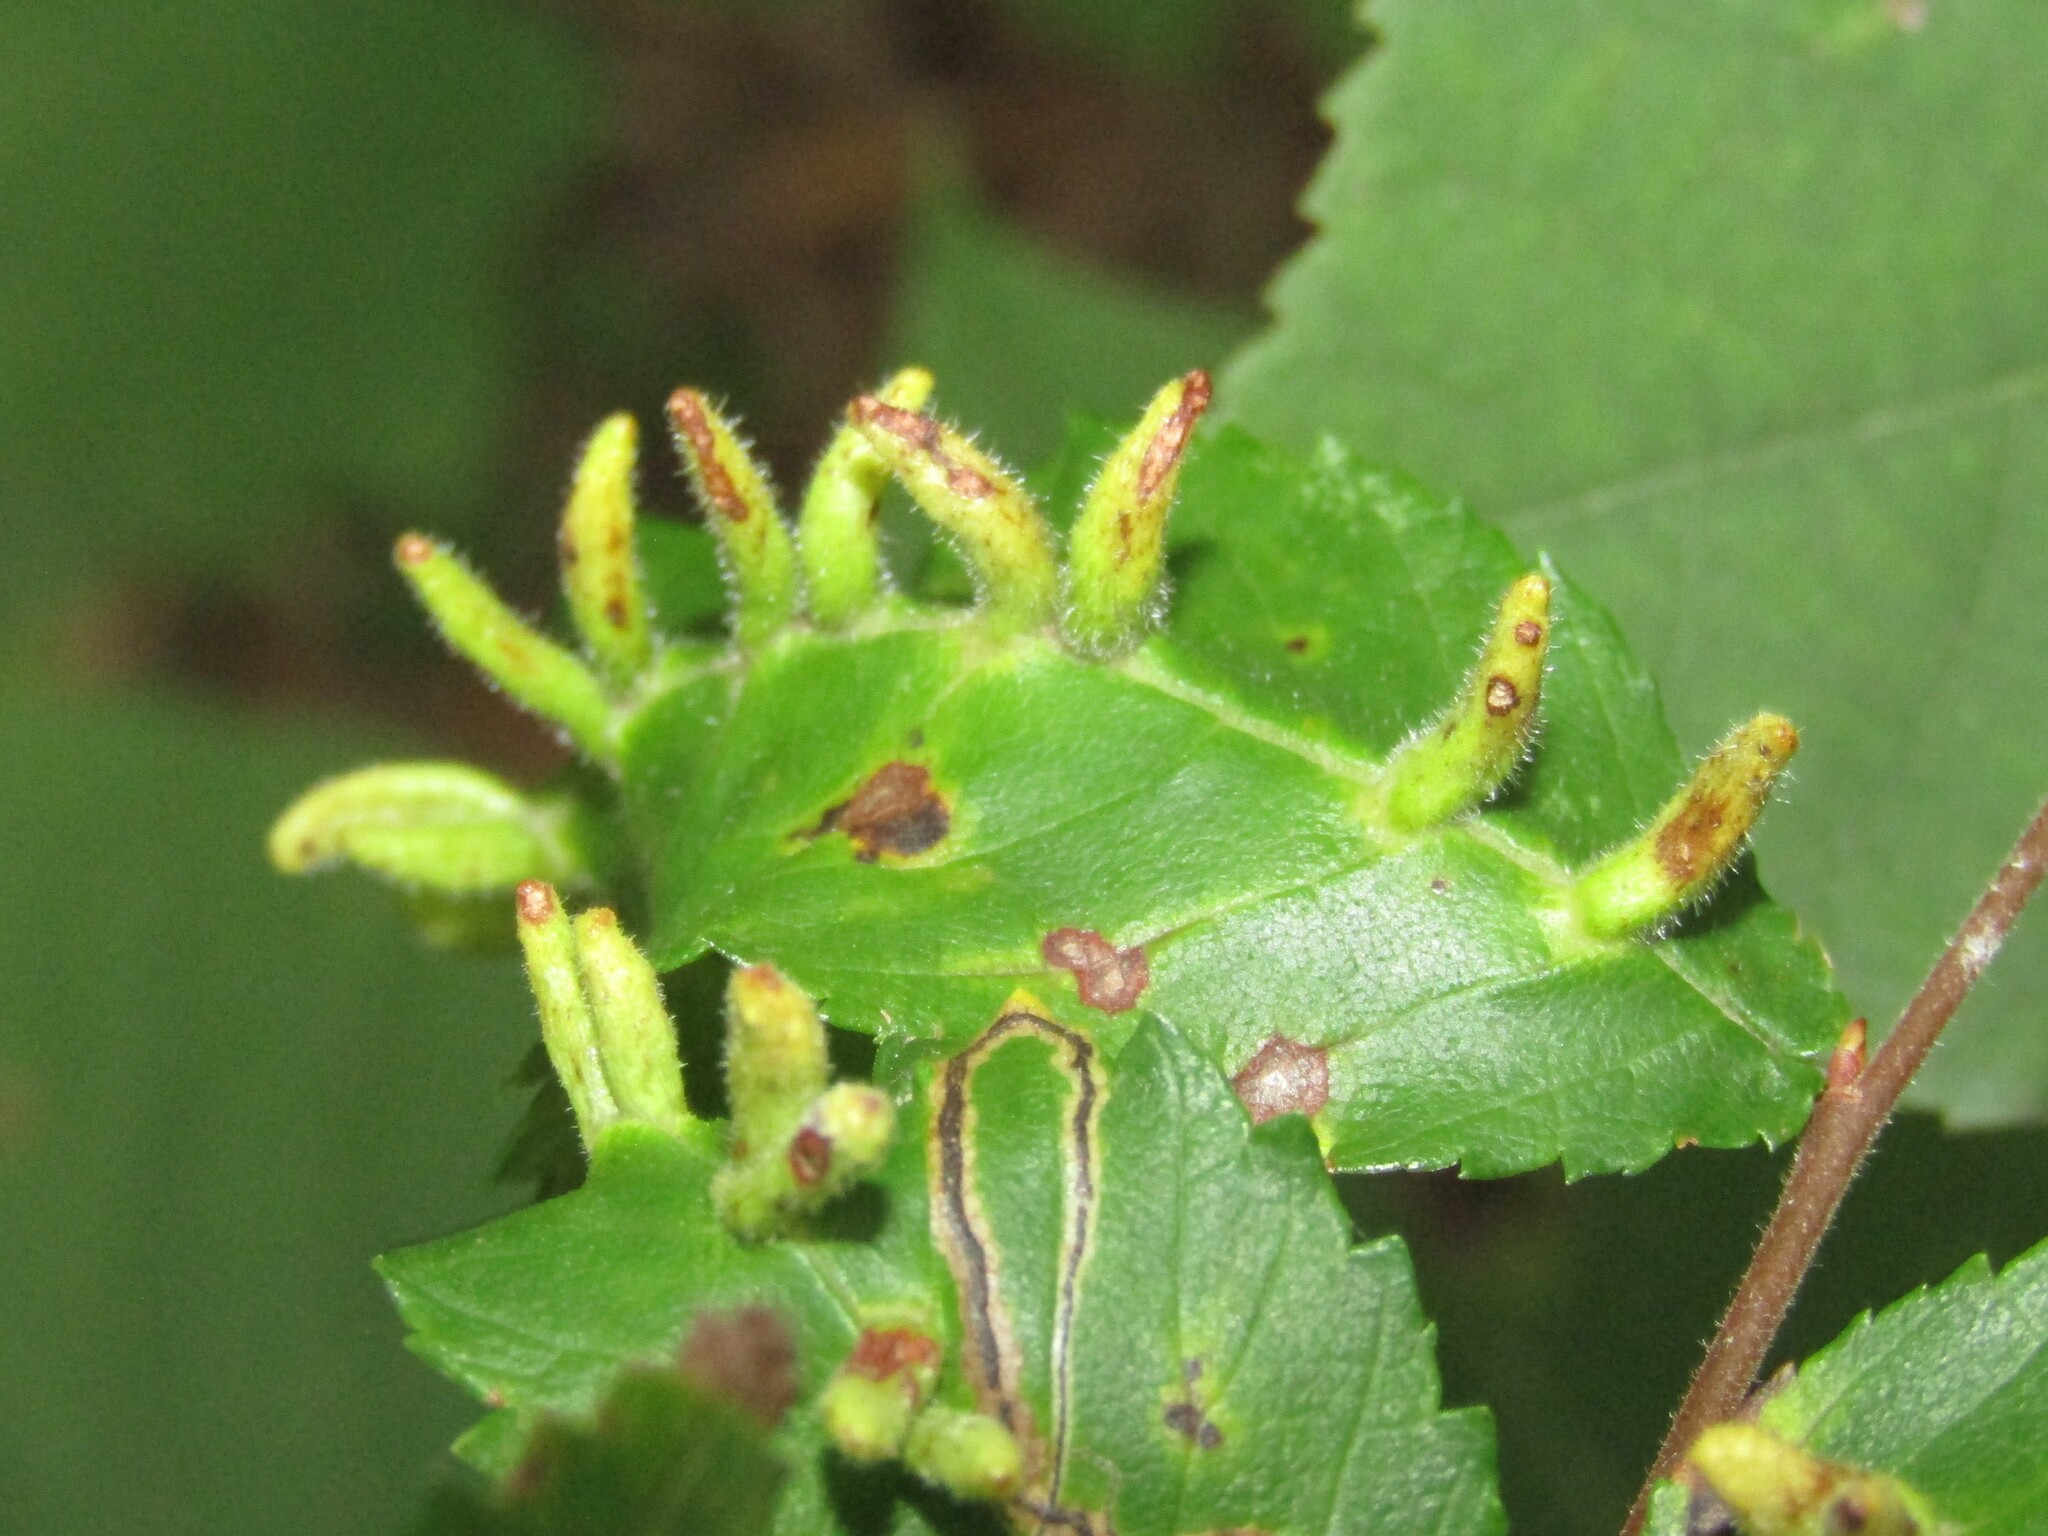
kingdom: Animalia
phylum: Arthropoda
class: Arachnida
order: Trombidiformes
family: Eriophyidae
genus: Aceria
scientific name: Aceria
